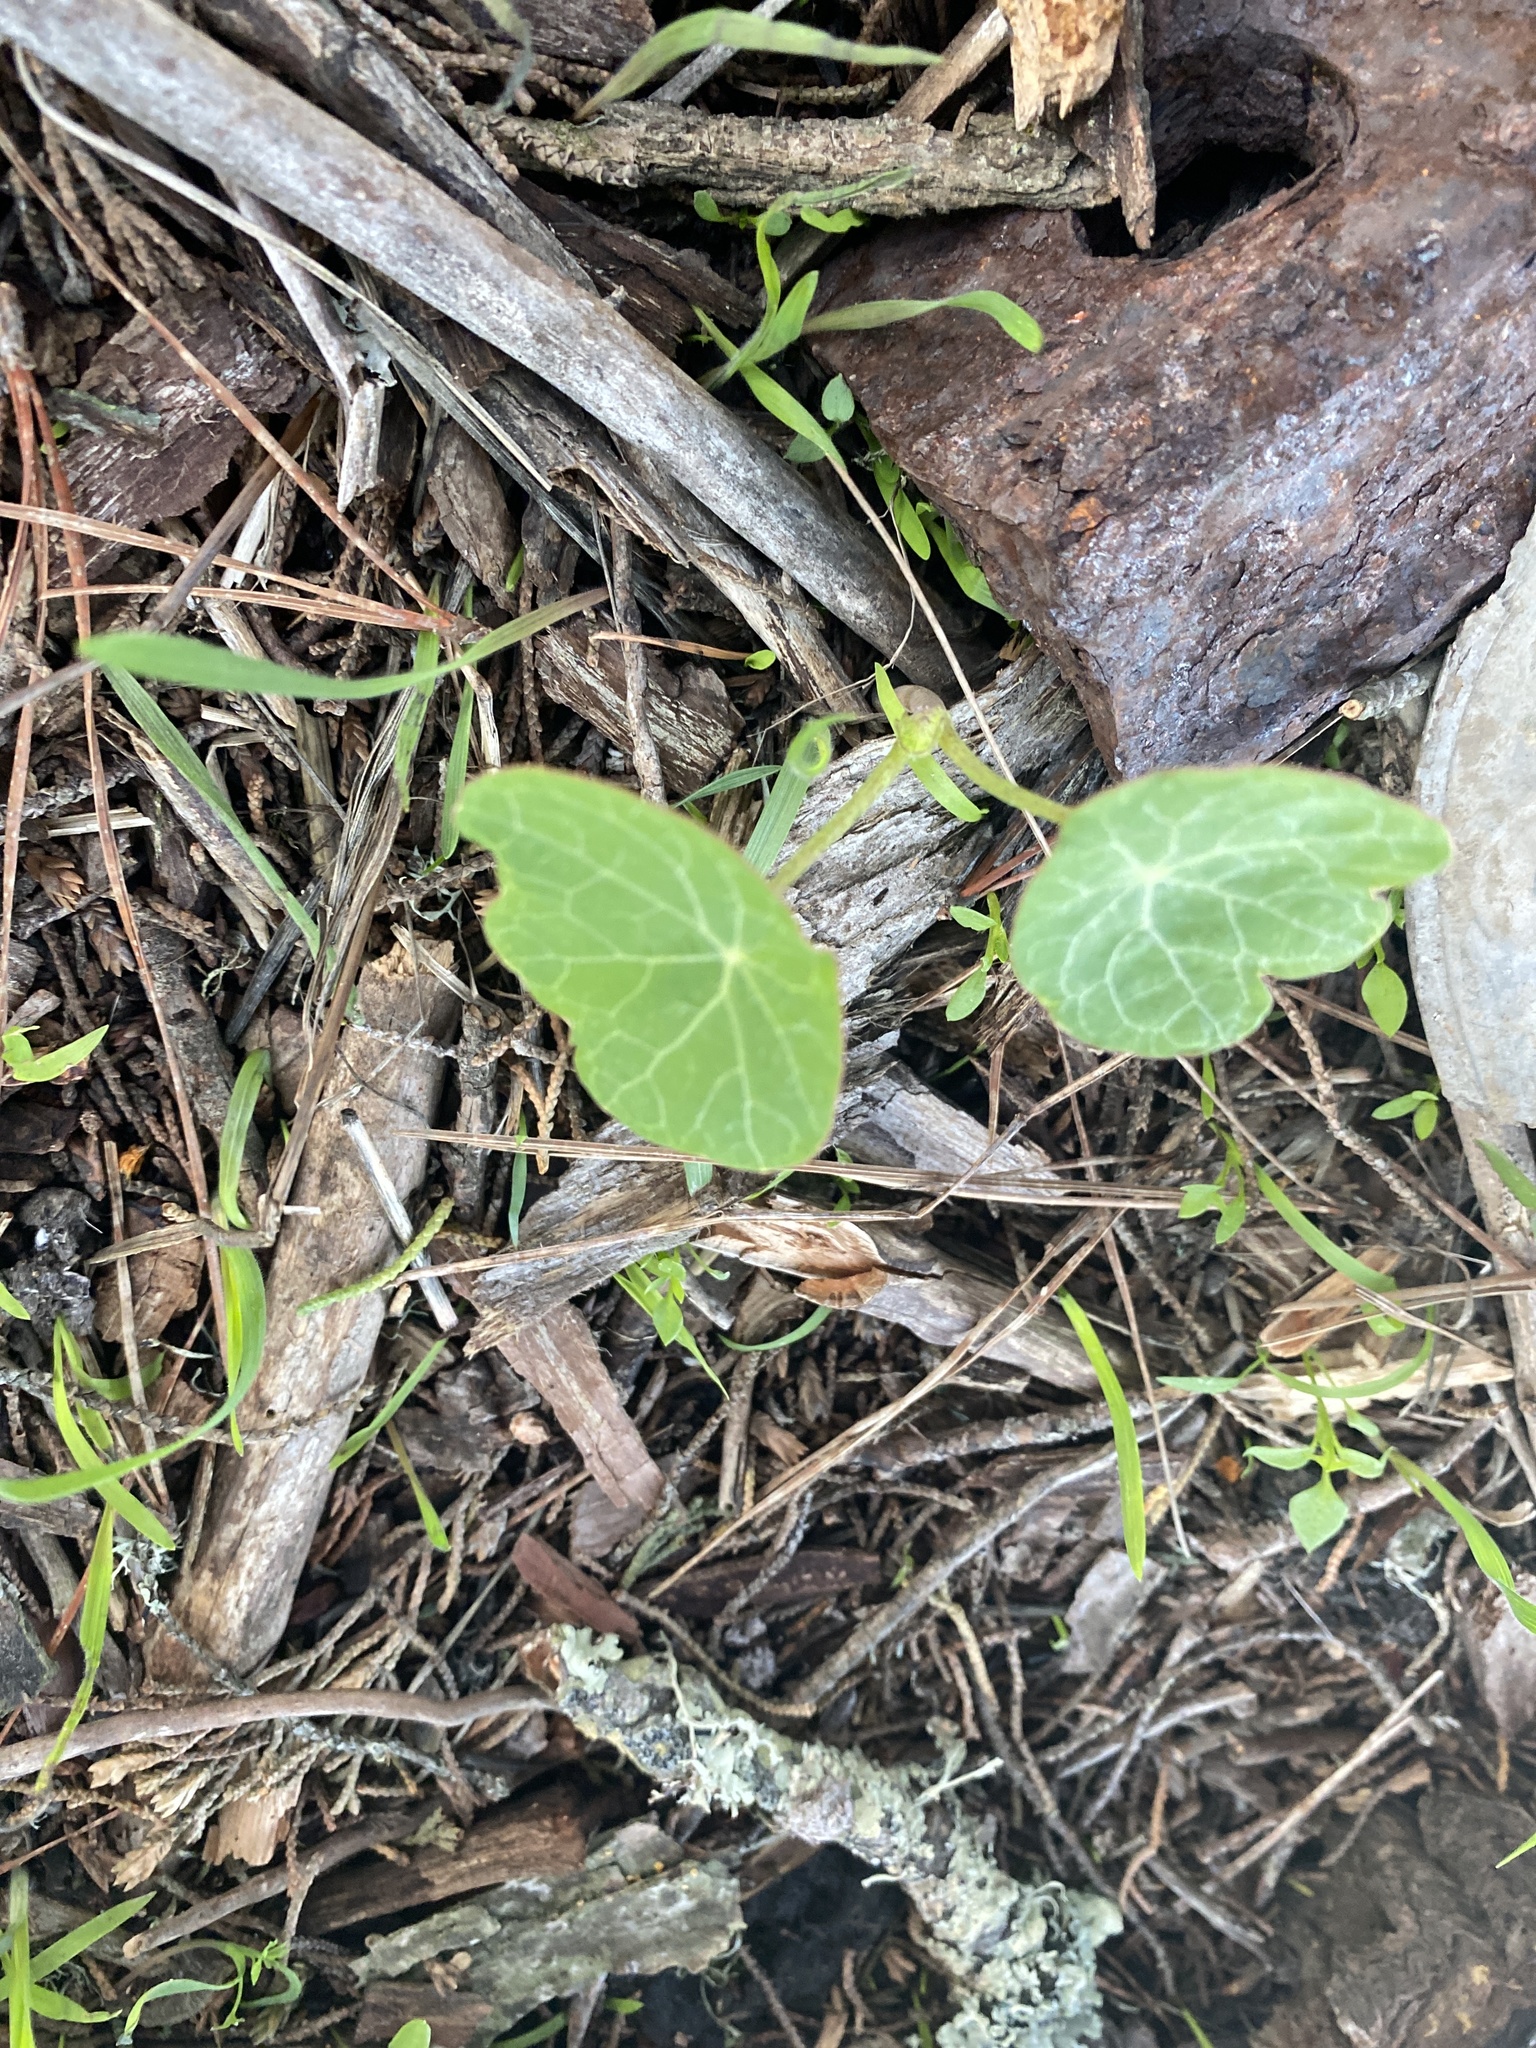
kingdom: Plantae
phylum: Tracheophyta
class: Magnoliopsida
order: Brassicales
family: Tropaeolaceae
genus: Tropaeolum
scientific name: Tropaeolum majus
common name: Nasturtium
